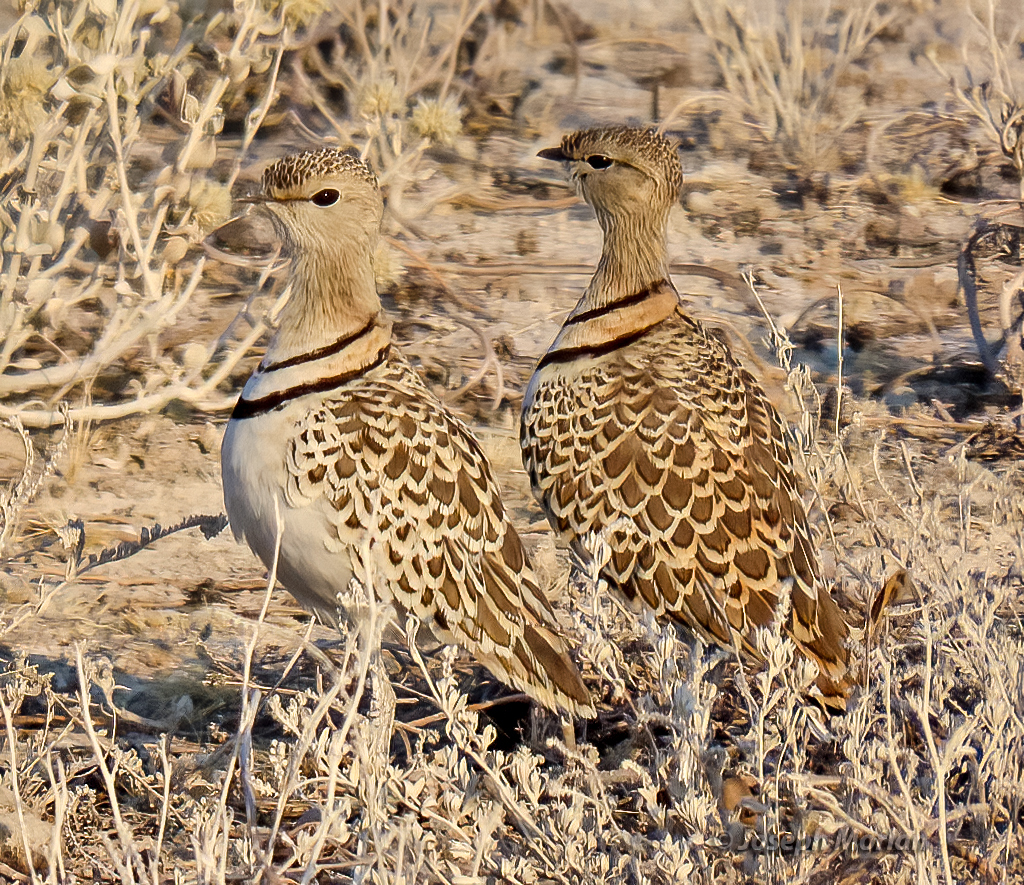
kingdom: Animalia
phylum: Chordata
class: Aves
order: Charadriiformes
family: Glareolidae
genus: Rhinoptilus
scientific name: Rhinoptilus africanus
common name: Double-banded courser
